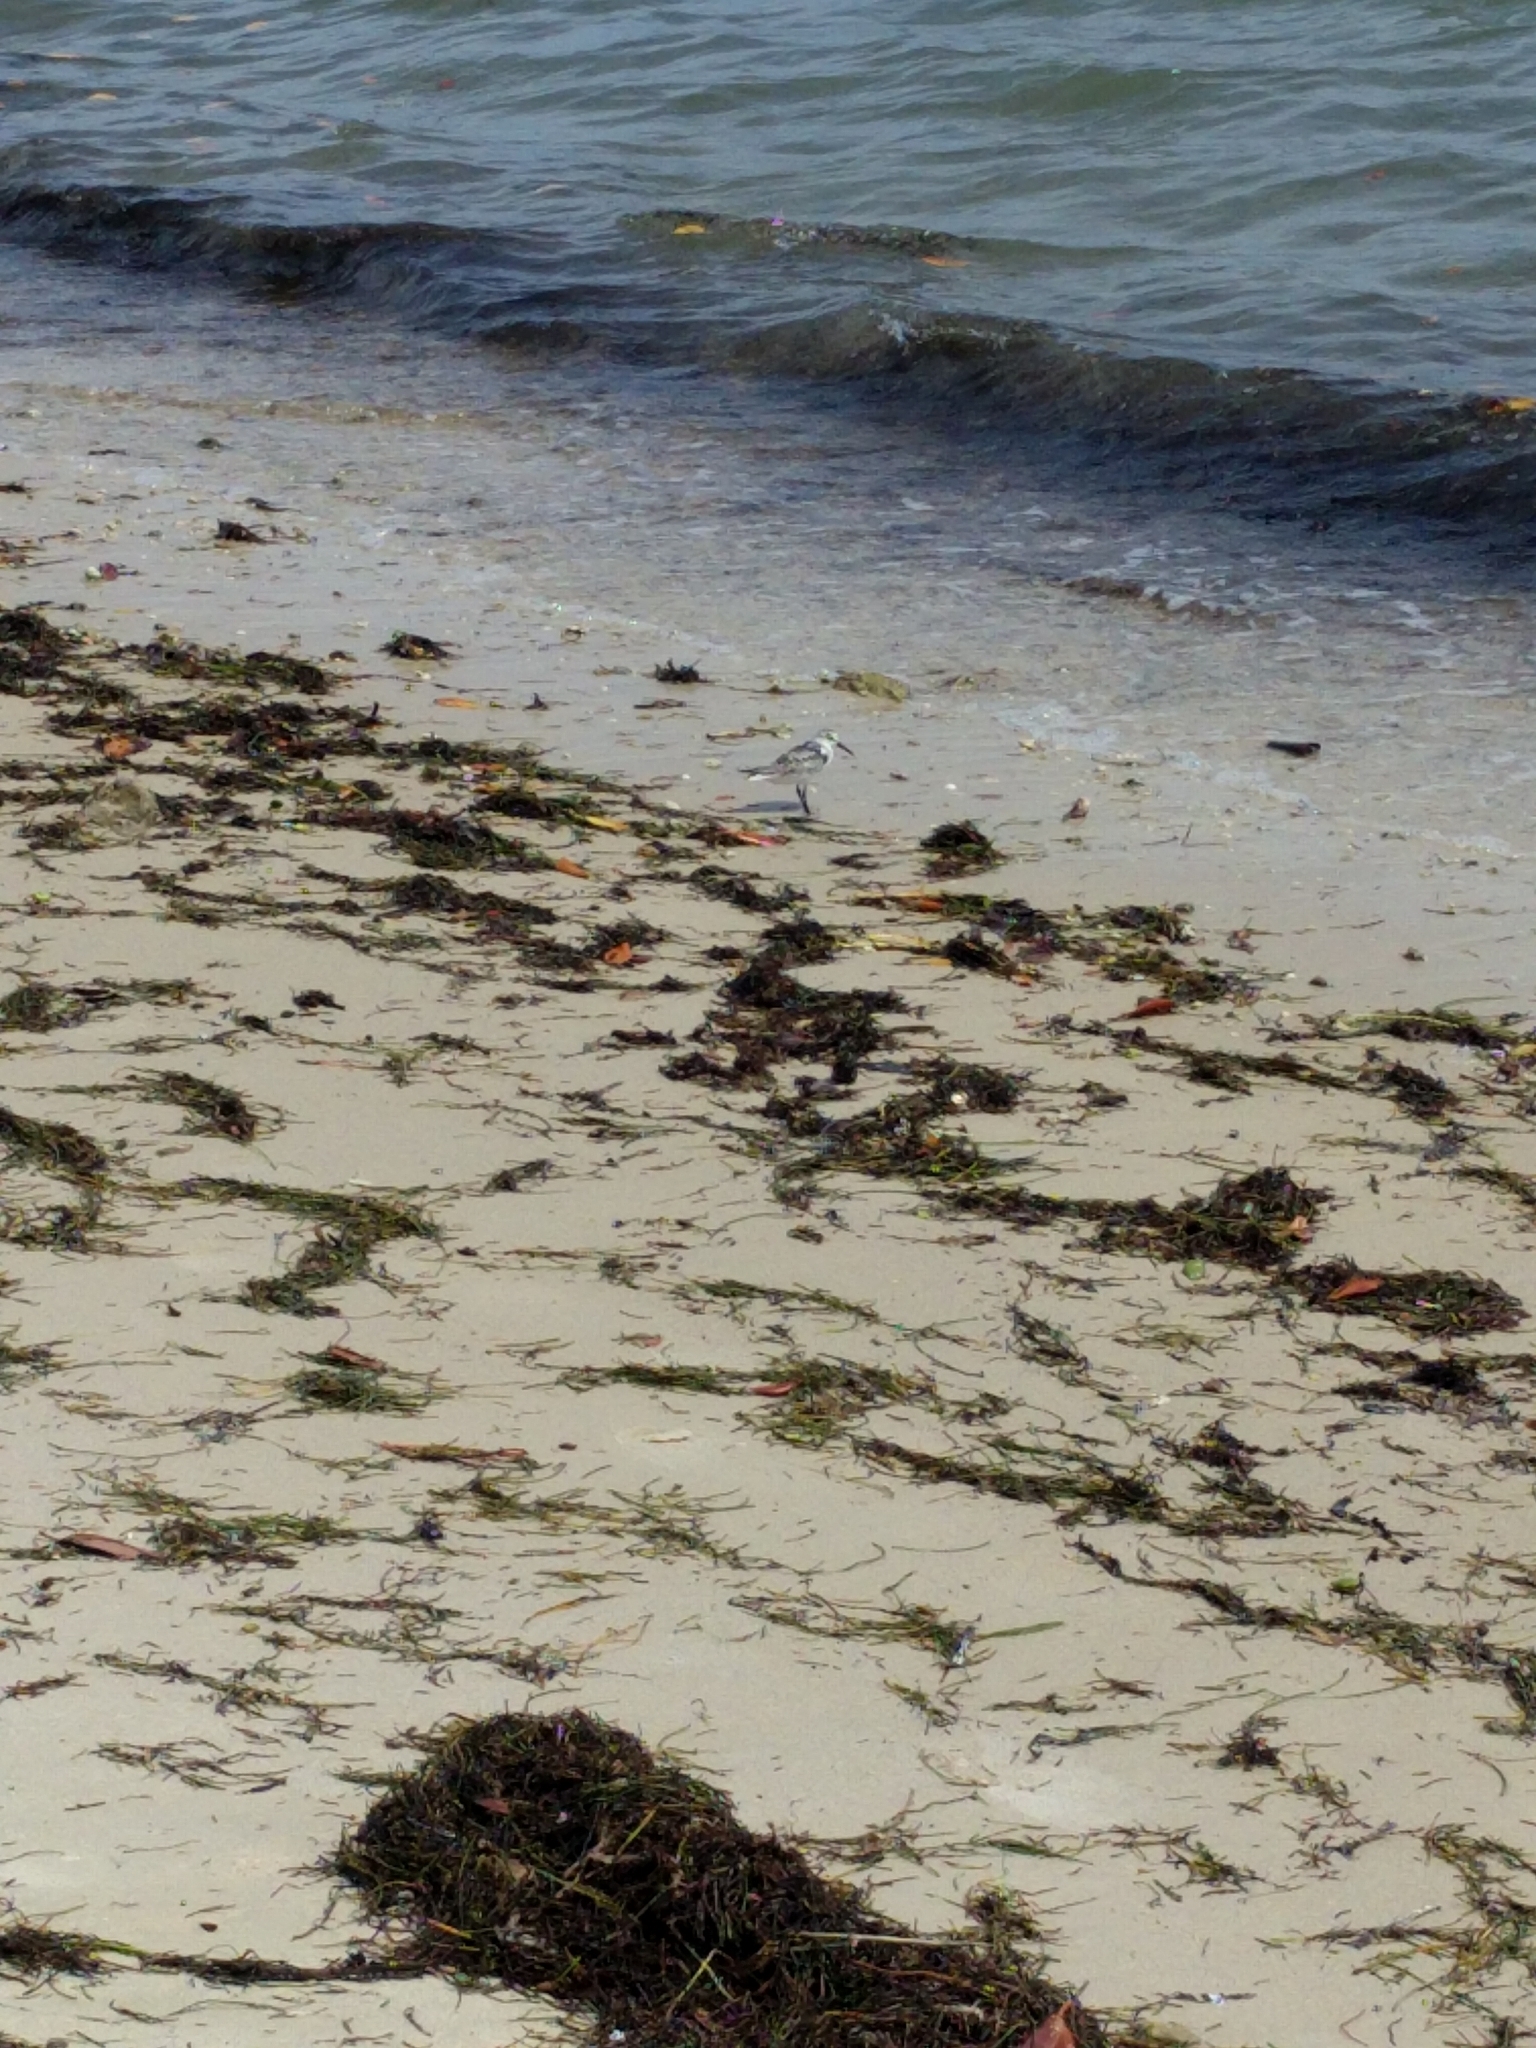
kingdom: Animalia
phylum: Chordata
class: Aves
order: Charadriiformes
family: Scolopacidae
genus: Calidris
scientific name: Calidris alba
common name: Sanderling
